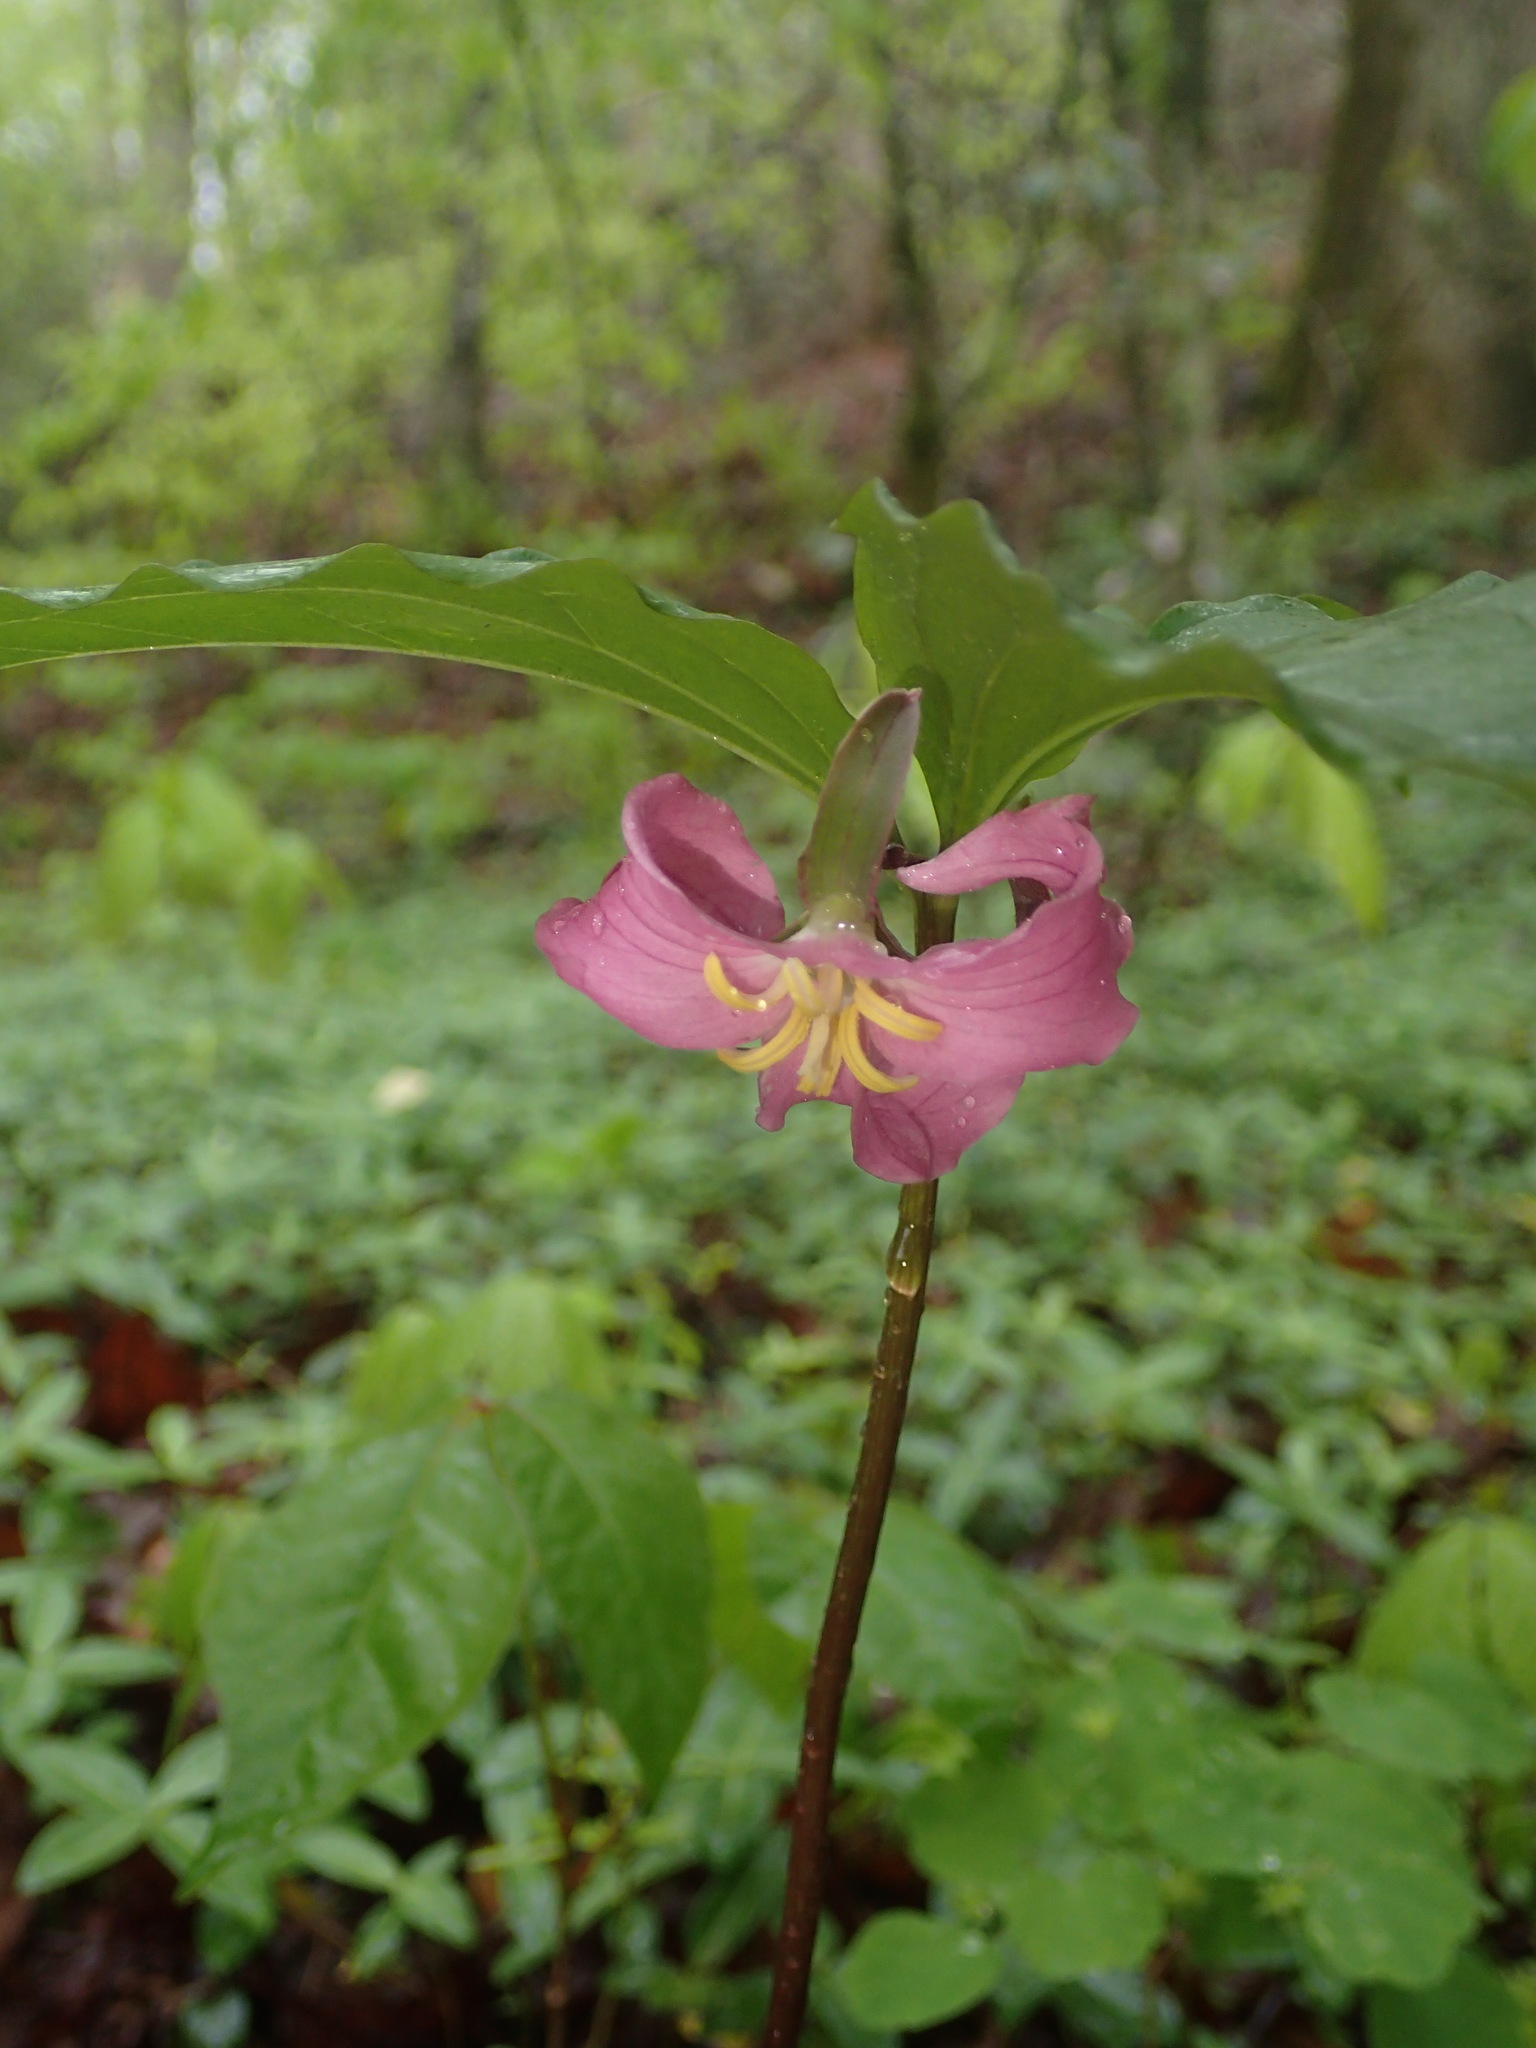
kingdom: Plantae
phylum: Tracheophyta
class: Liliopsida
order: Liliales
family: Melanthiaceae
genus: Trillium
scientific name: Trillium catesbaei
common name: Bashful trillium
